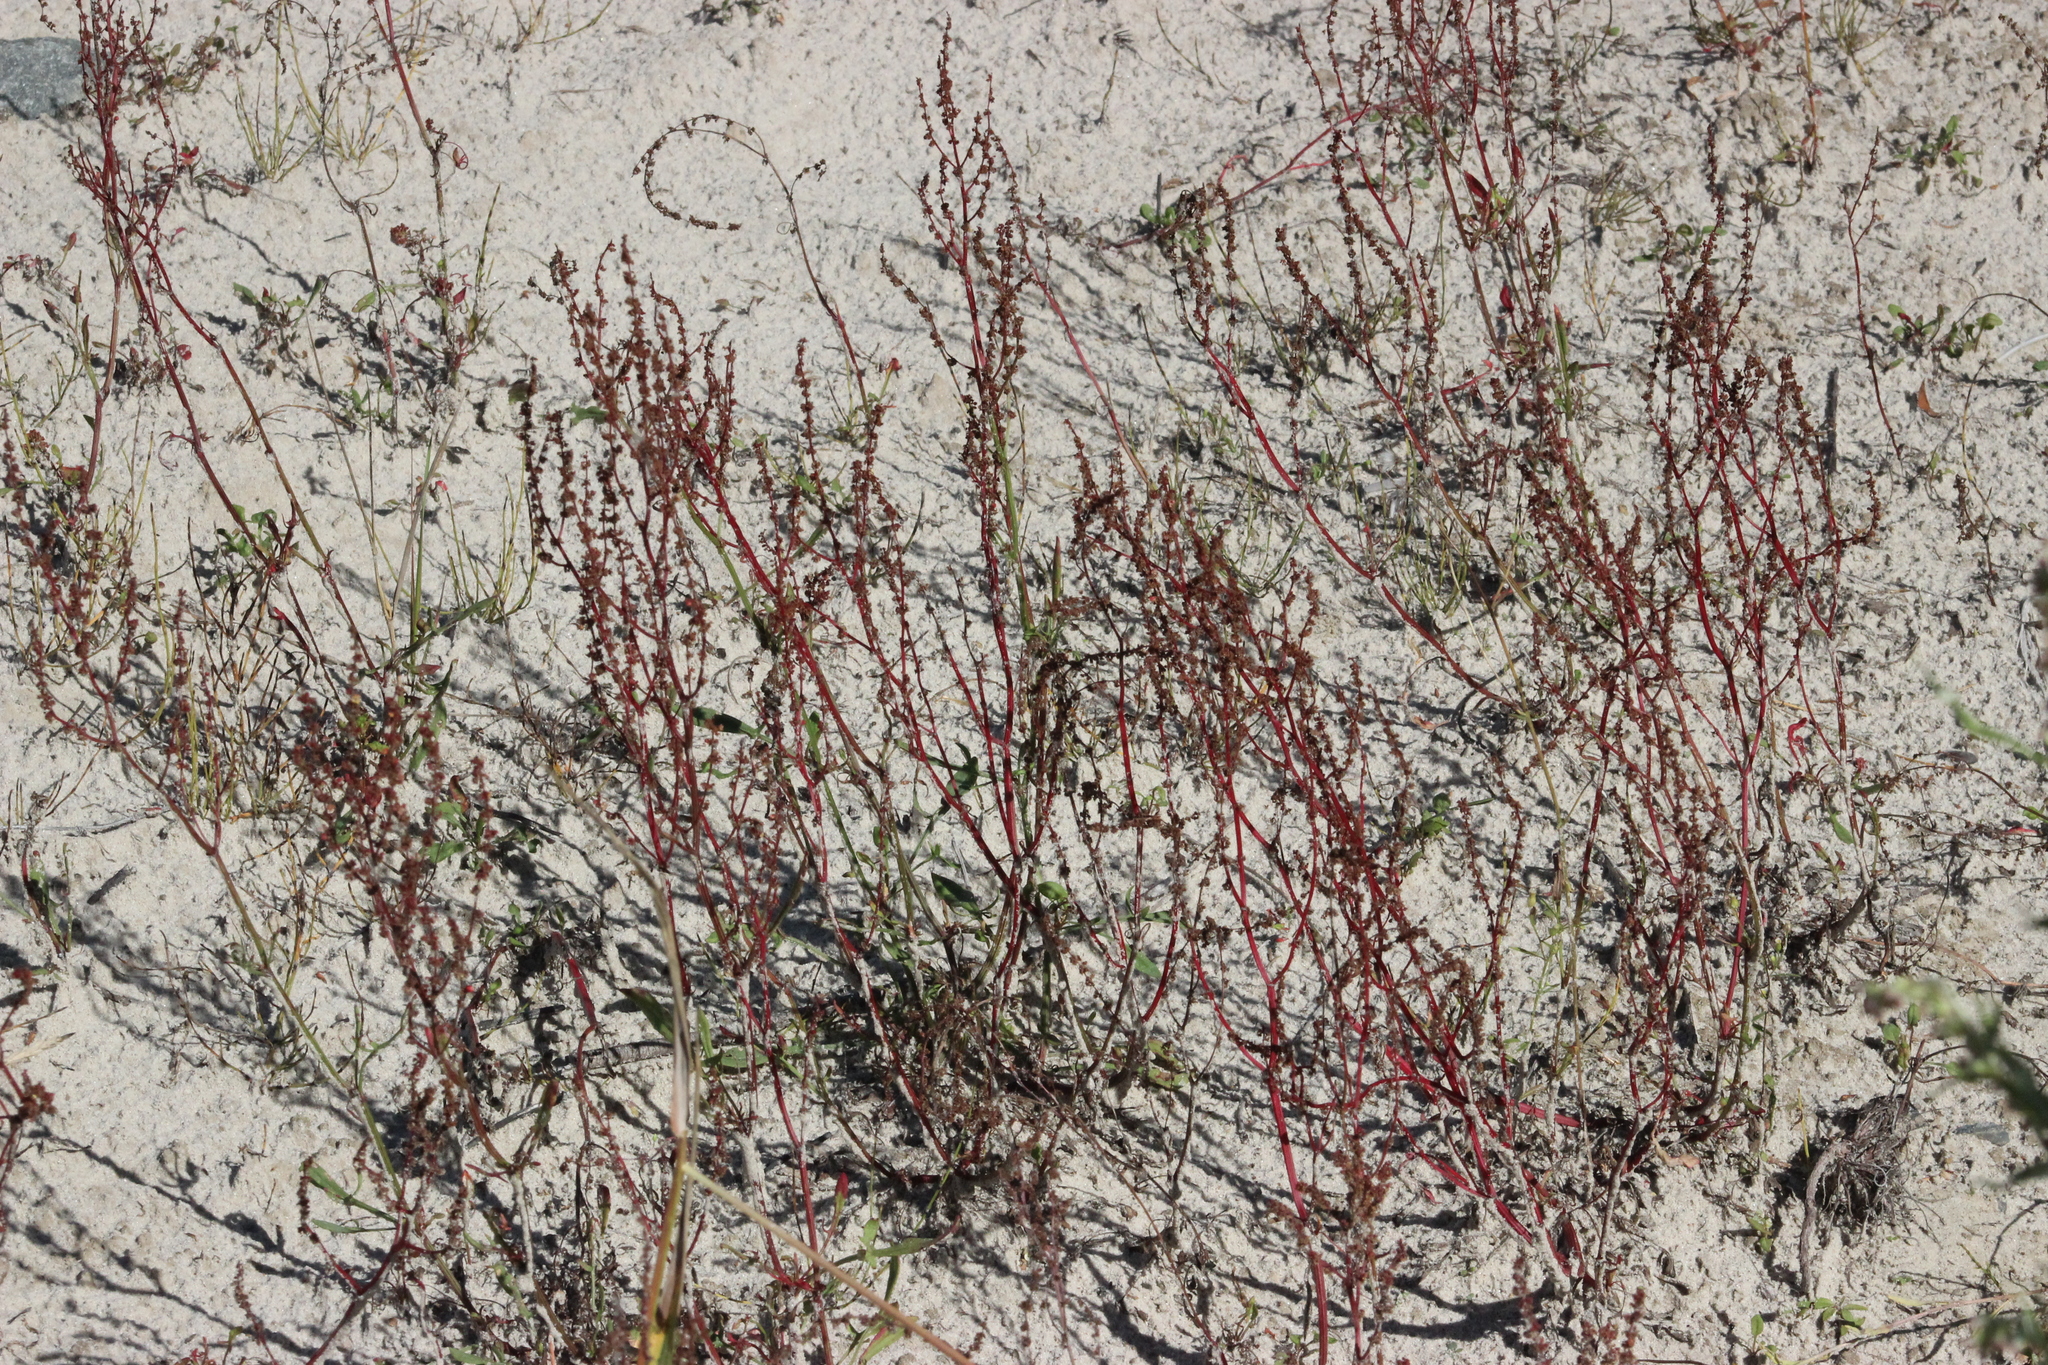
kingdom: Plantae
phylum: Tracheophyta
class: Magnoliopsida
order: Caryophyllales
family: Polygonaceae
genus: Rumex
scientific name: Rumex acetosella
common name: Common sheep sorrel
